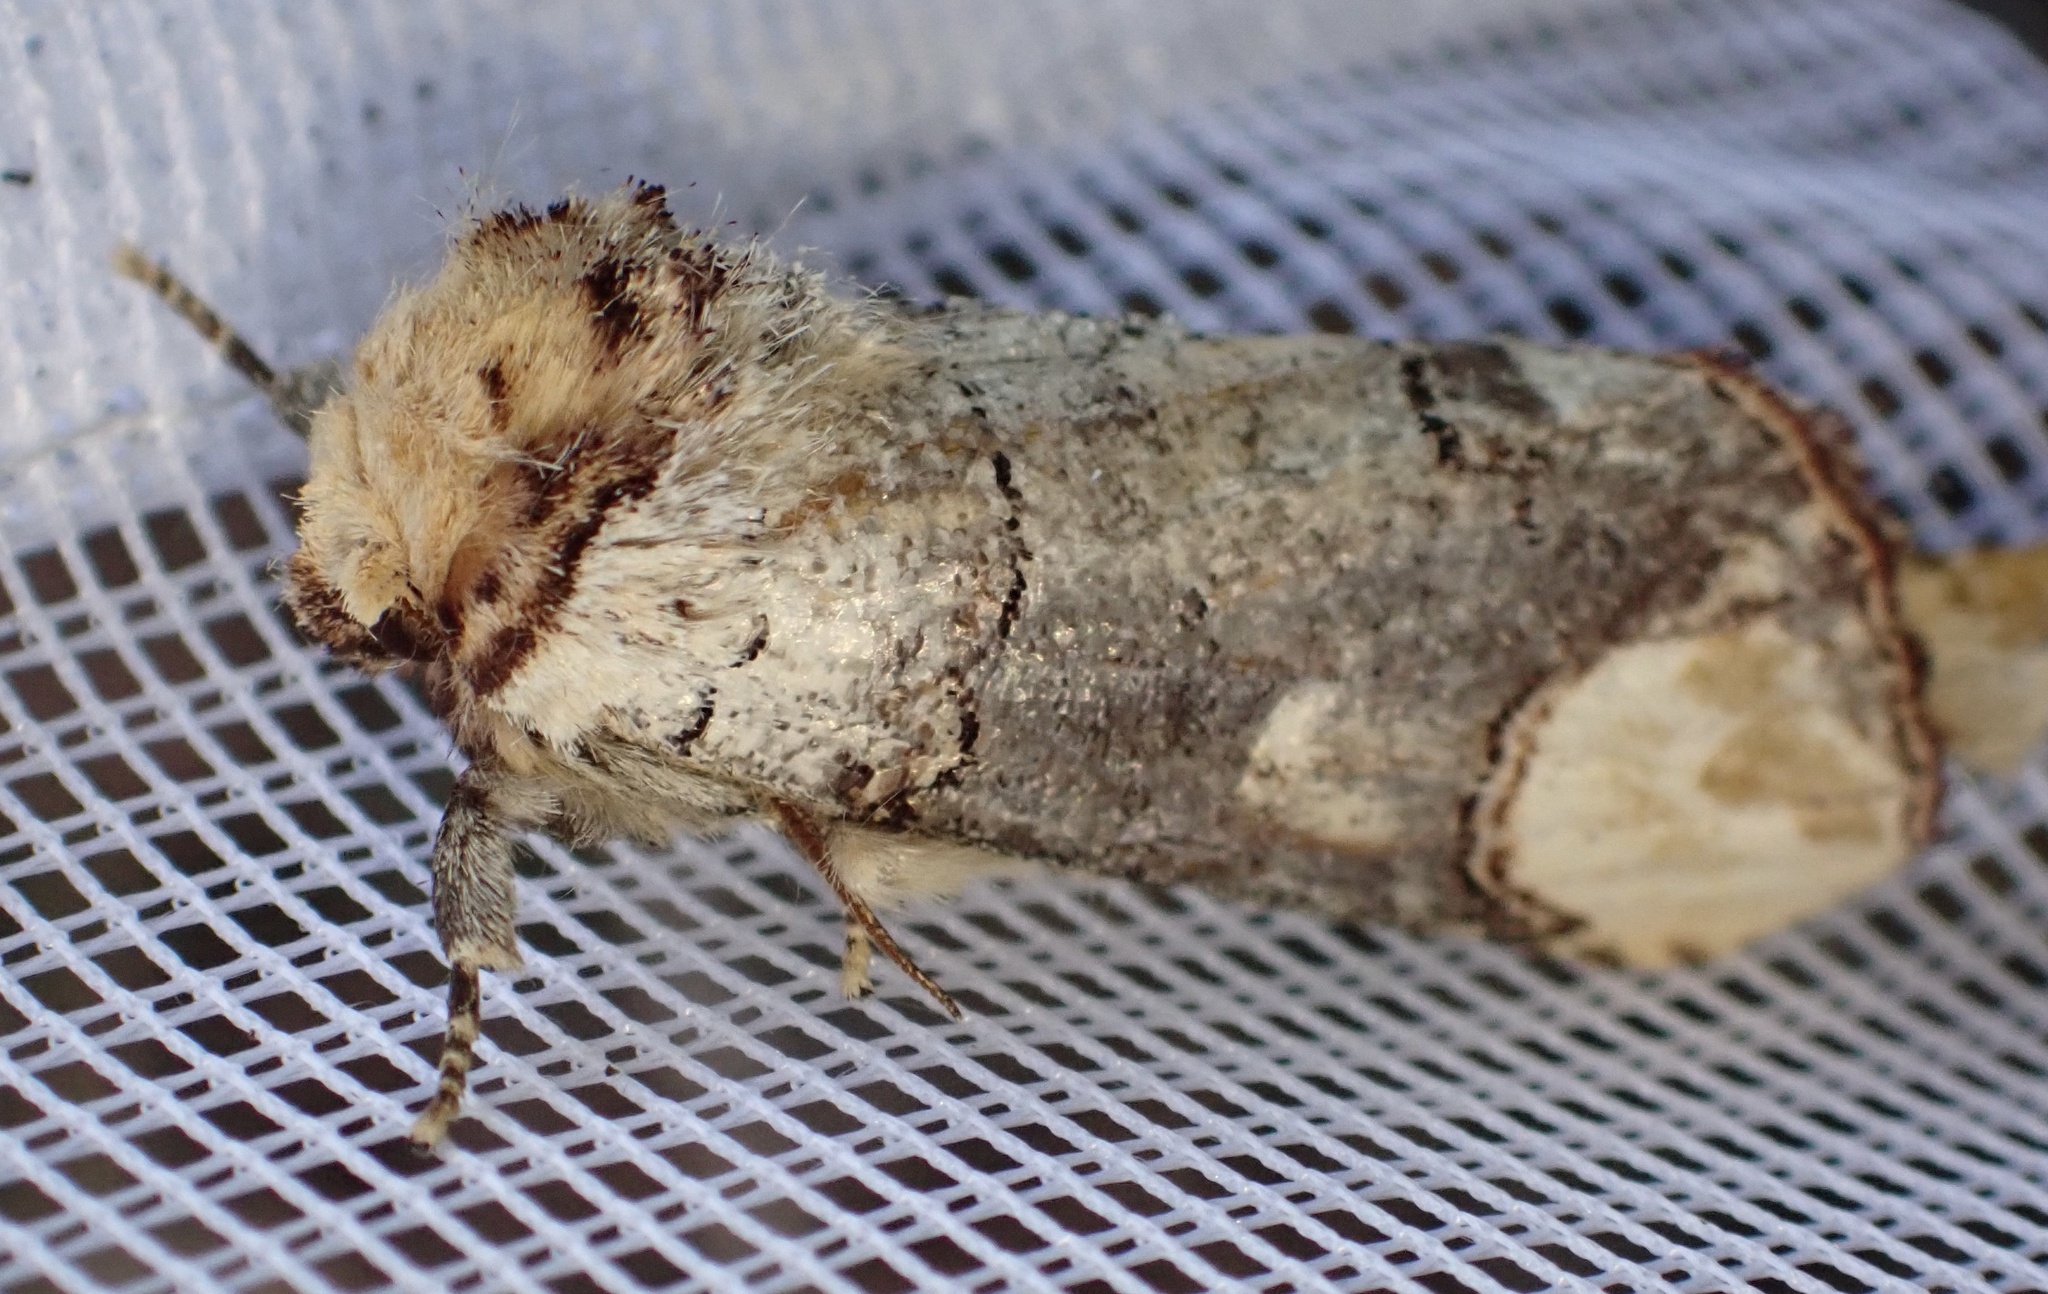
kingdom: Animalia
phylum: Arthropoda
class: Insecta
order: Lepidoptera
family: Notodontidae
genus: Phalera
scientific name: Phalera bucephala
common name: Buff-tip
